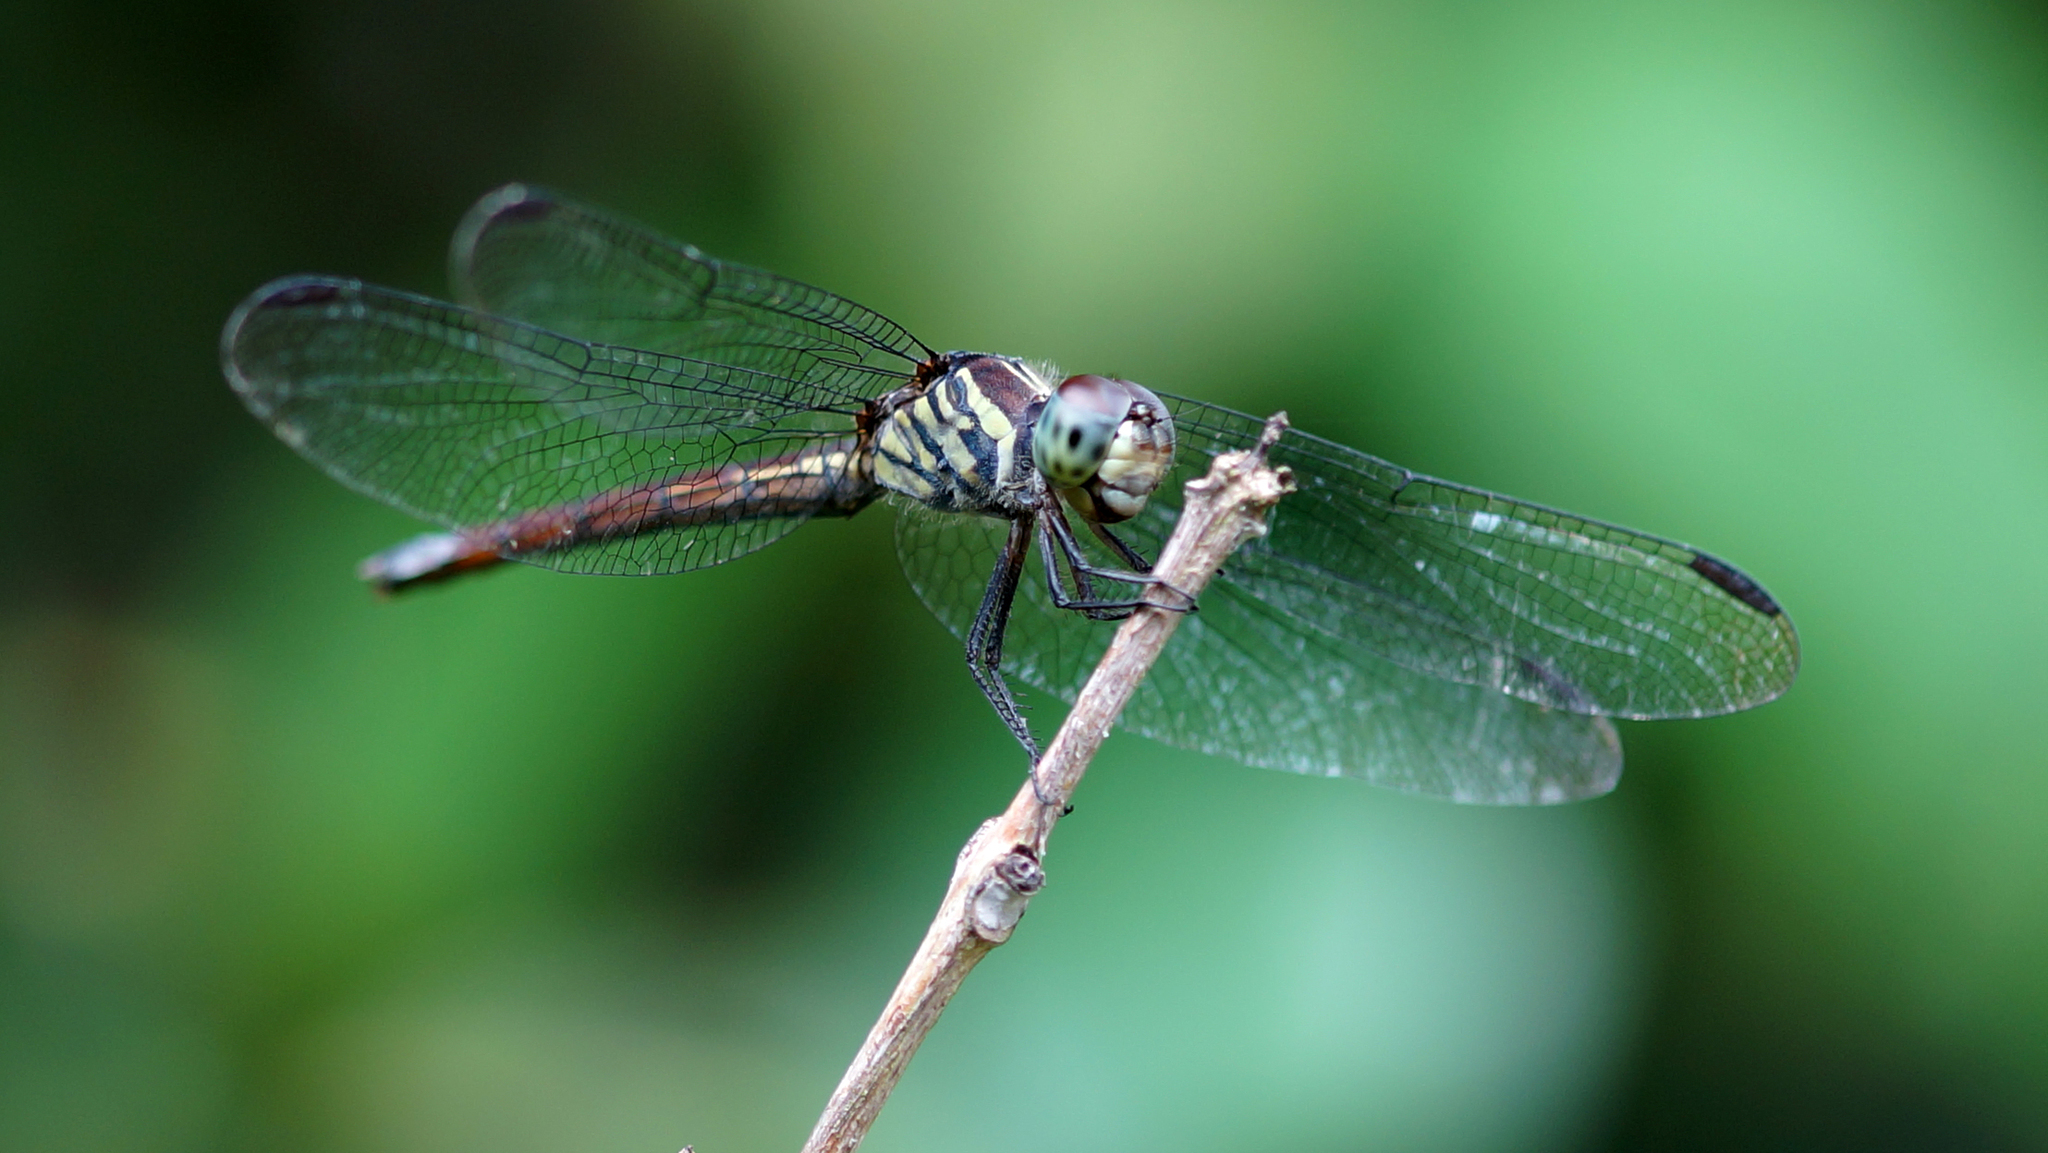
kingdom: Animalia
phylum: Arthropoda
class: Insecta
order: Odonata
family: Libellulidae
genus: Lathrecista
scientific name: Lathrecista asiatica
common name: Scarlet grenadier
